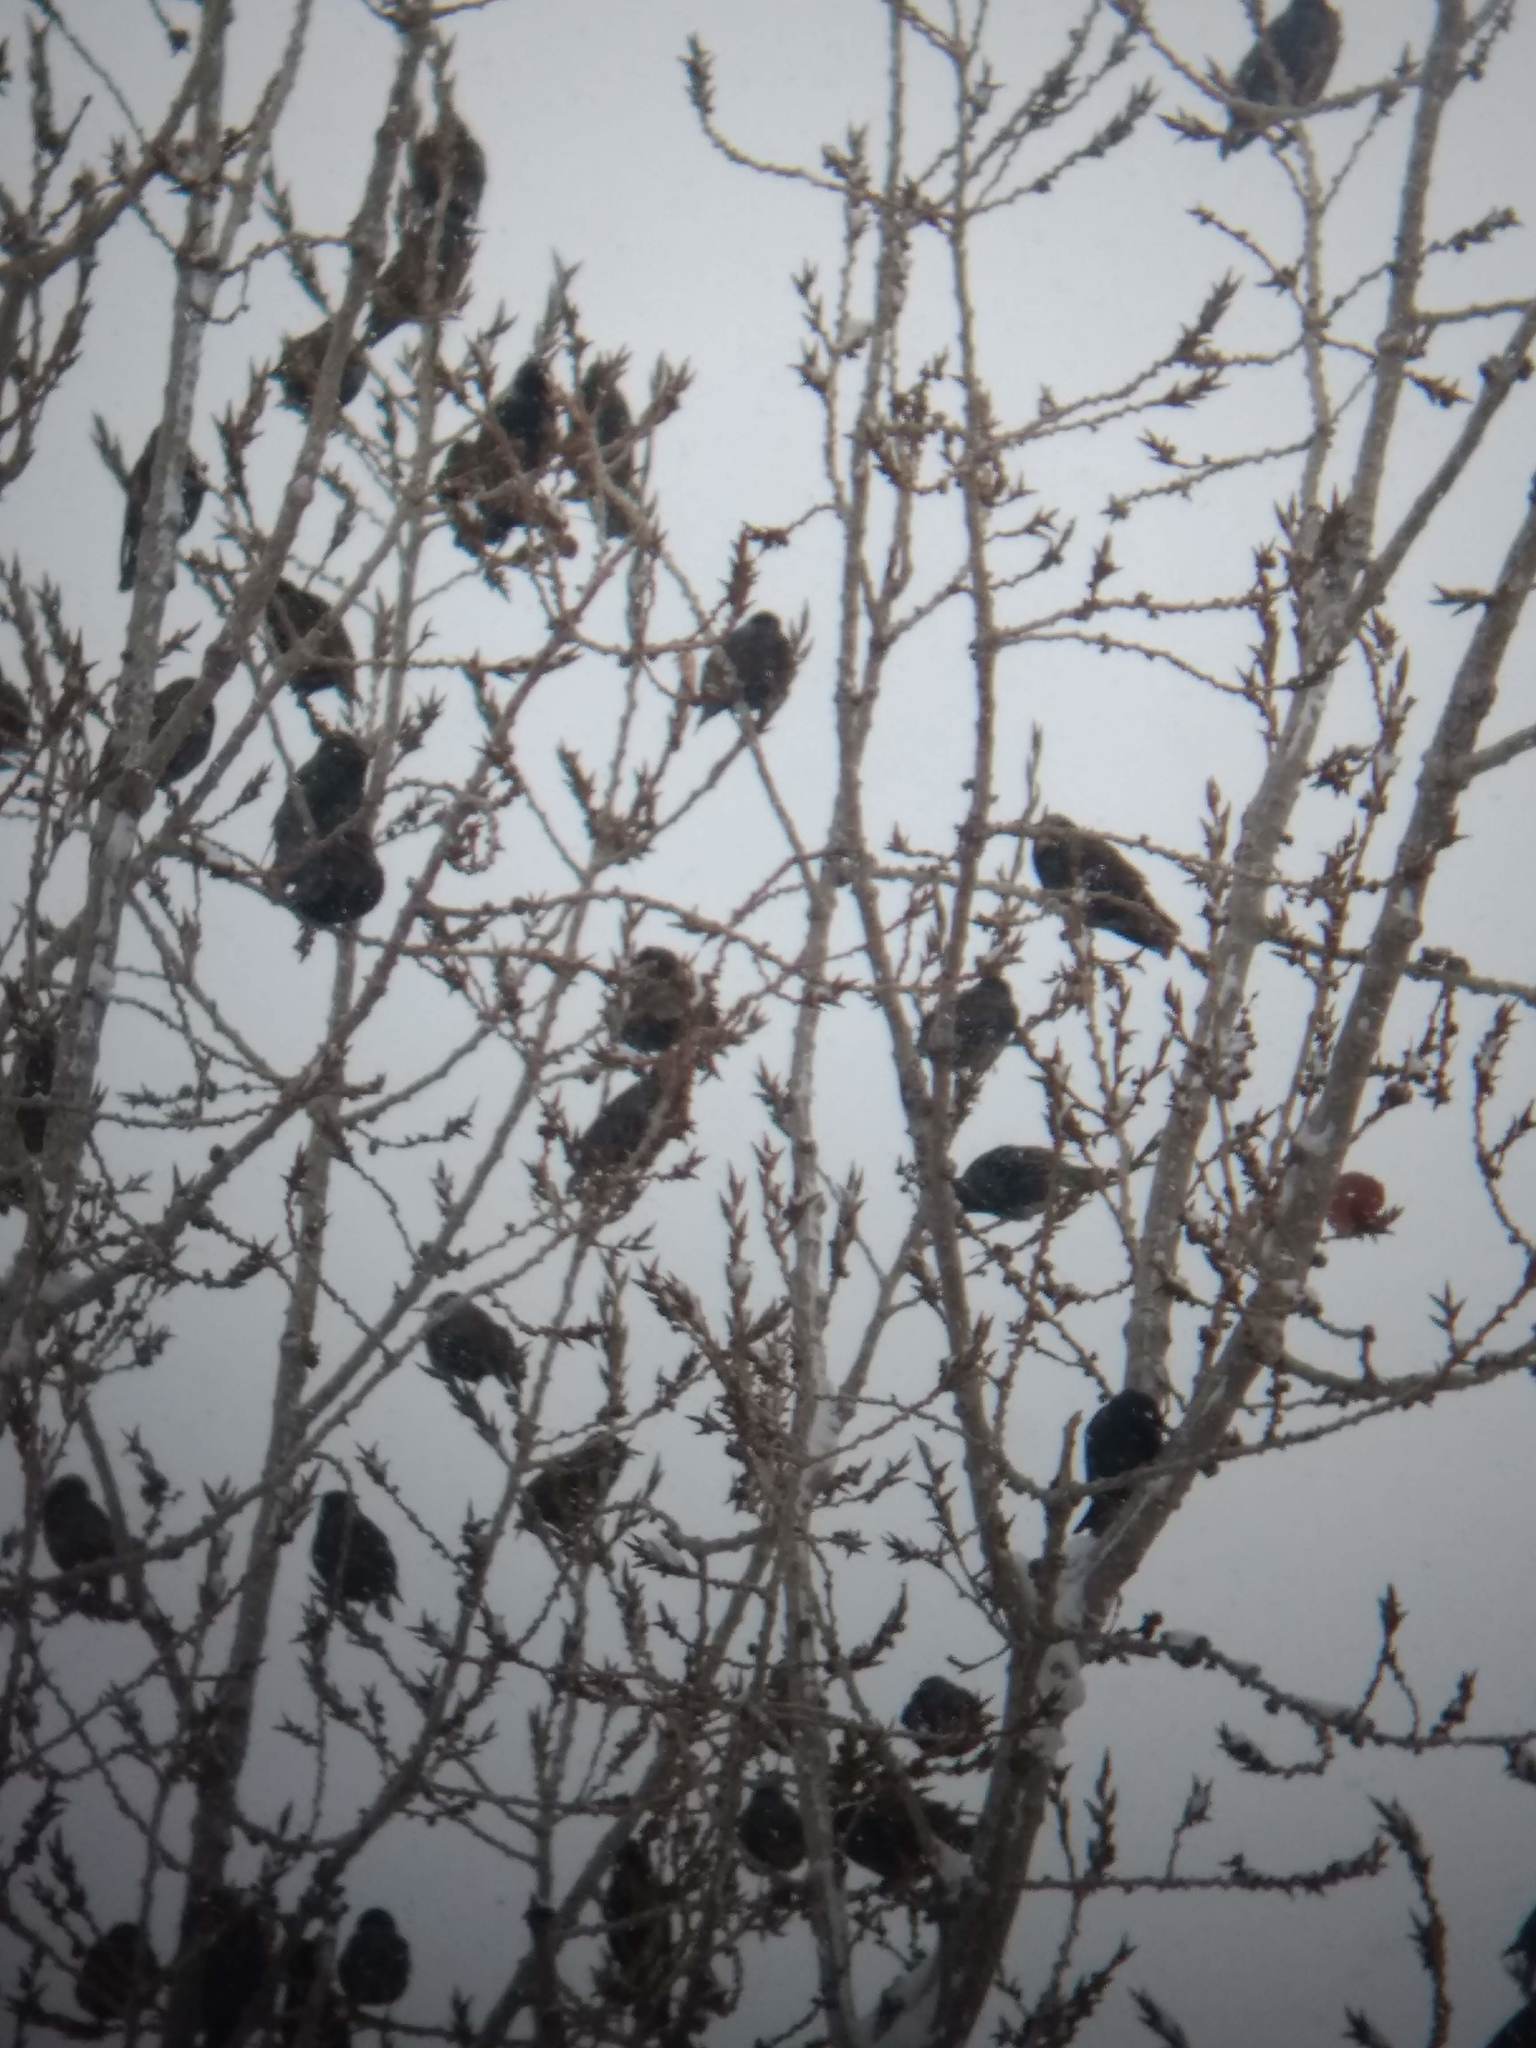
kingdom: Animalia
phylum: Chordata
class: Aves
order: Passeriformes
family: Sturnidae
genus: Sturnus
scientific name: Sturnus vulgaris
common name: Common starling
